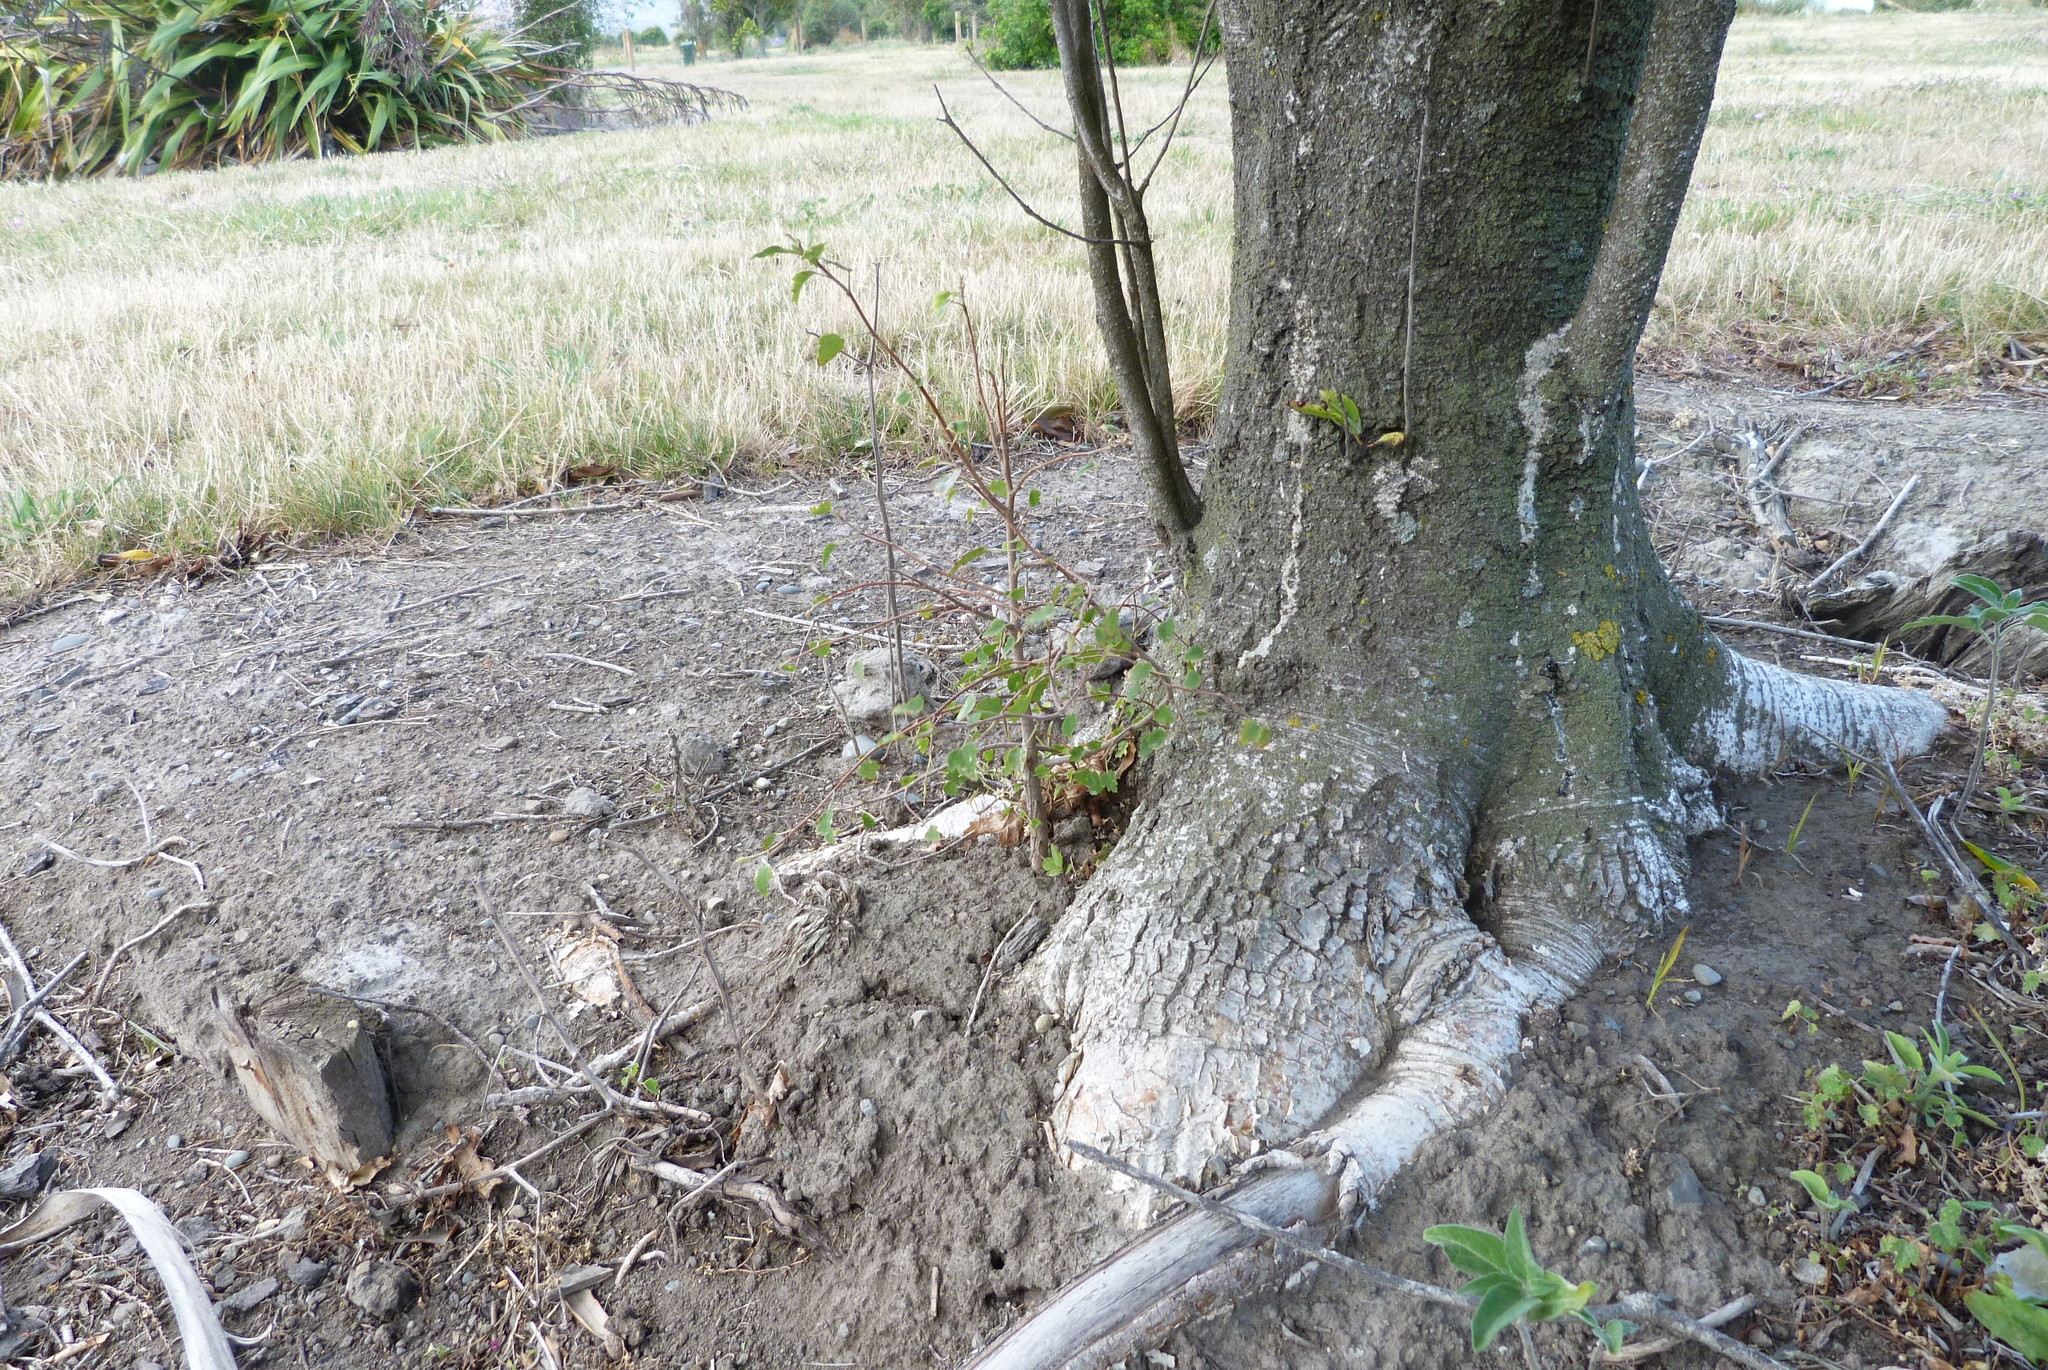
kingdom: Plantae
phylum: Tracheophyta
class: Magnoliopsida
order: Malvales
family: Malvaceae
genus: Plagianthus
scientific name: Plagianthus regius
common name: Manatu
